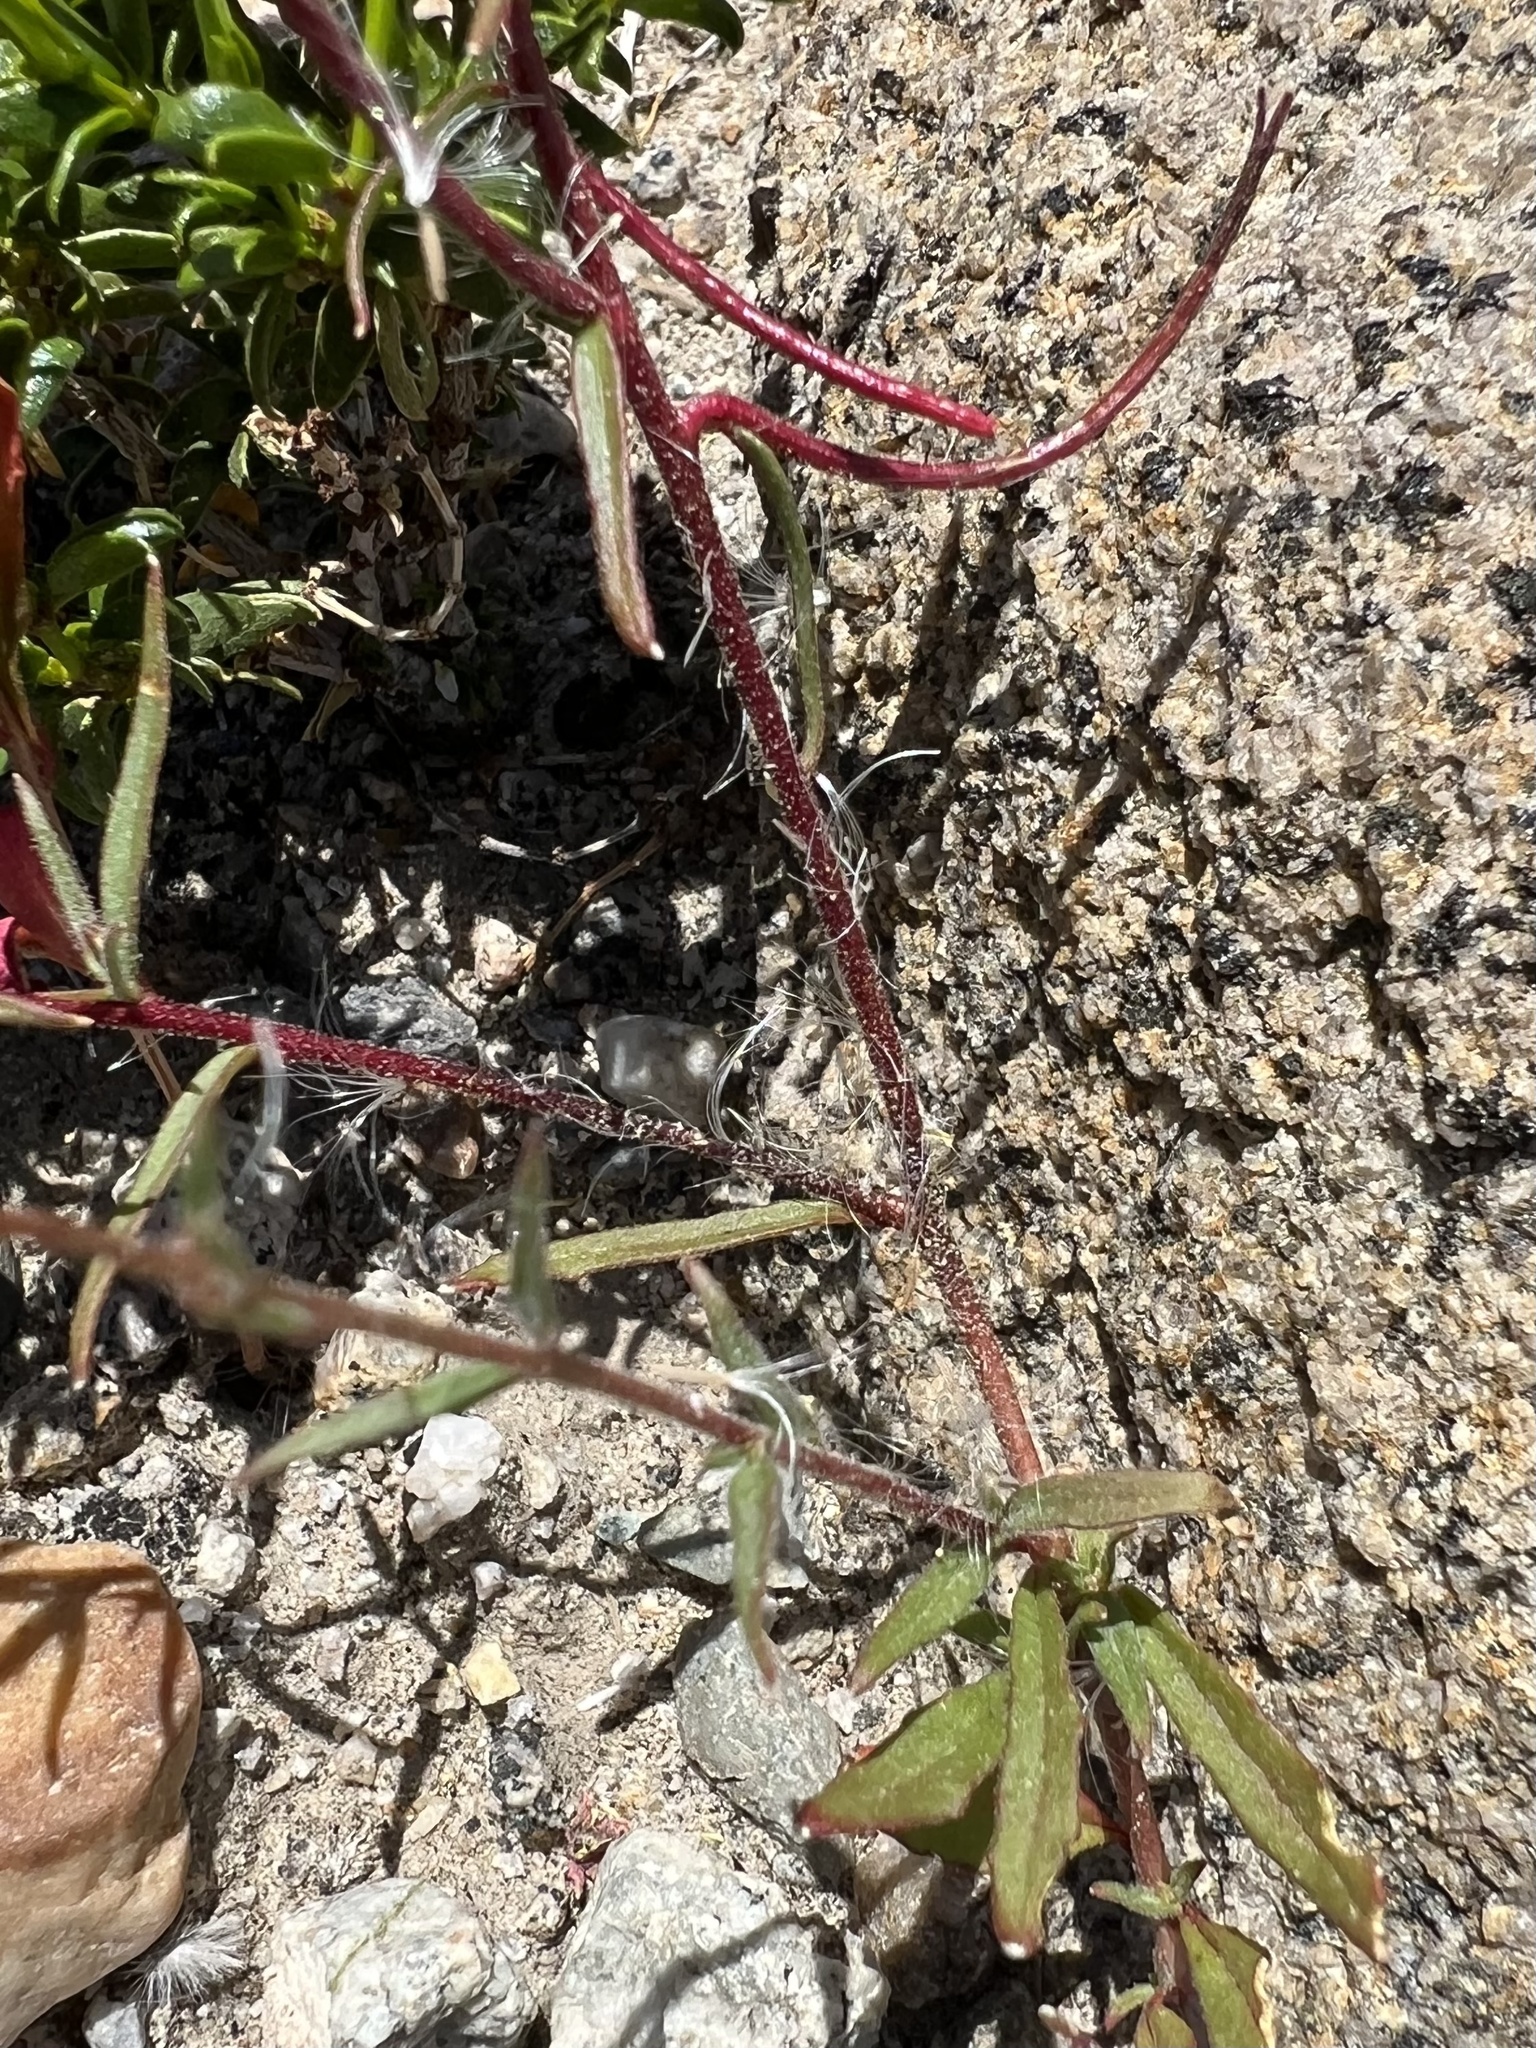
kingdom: Plantae
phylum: Tracheophyta
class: Magnoliopsida
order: Myrtales
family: Onagraceae
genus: Eremothera
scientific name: Eremothera refracta
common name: Narrowleaf suncup
